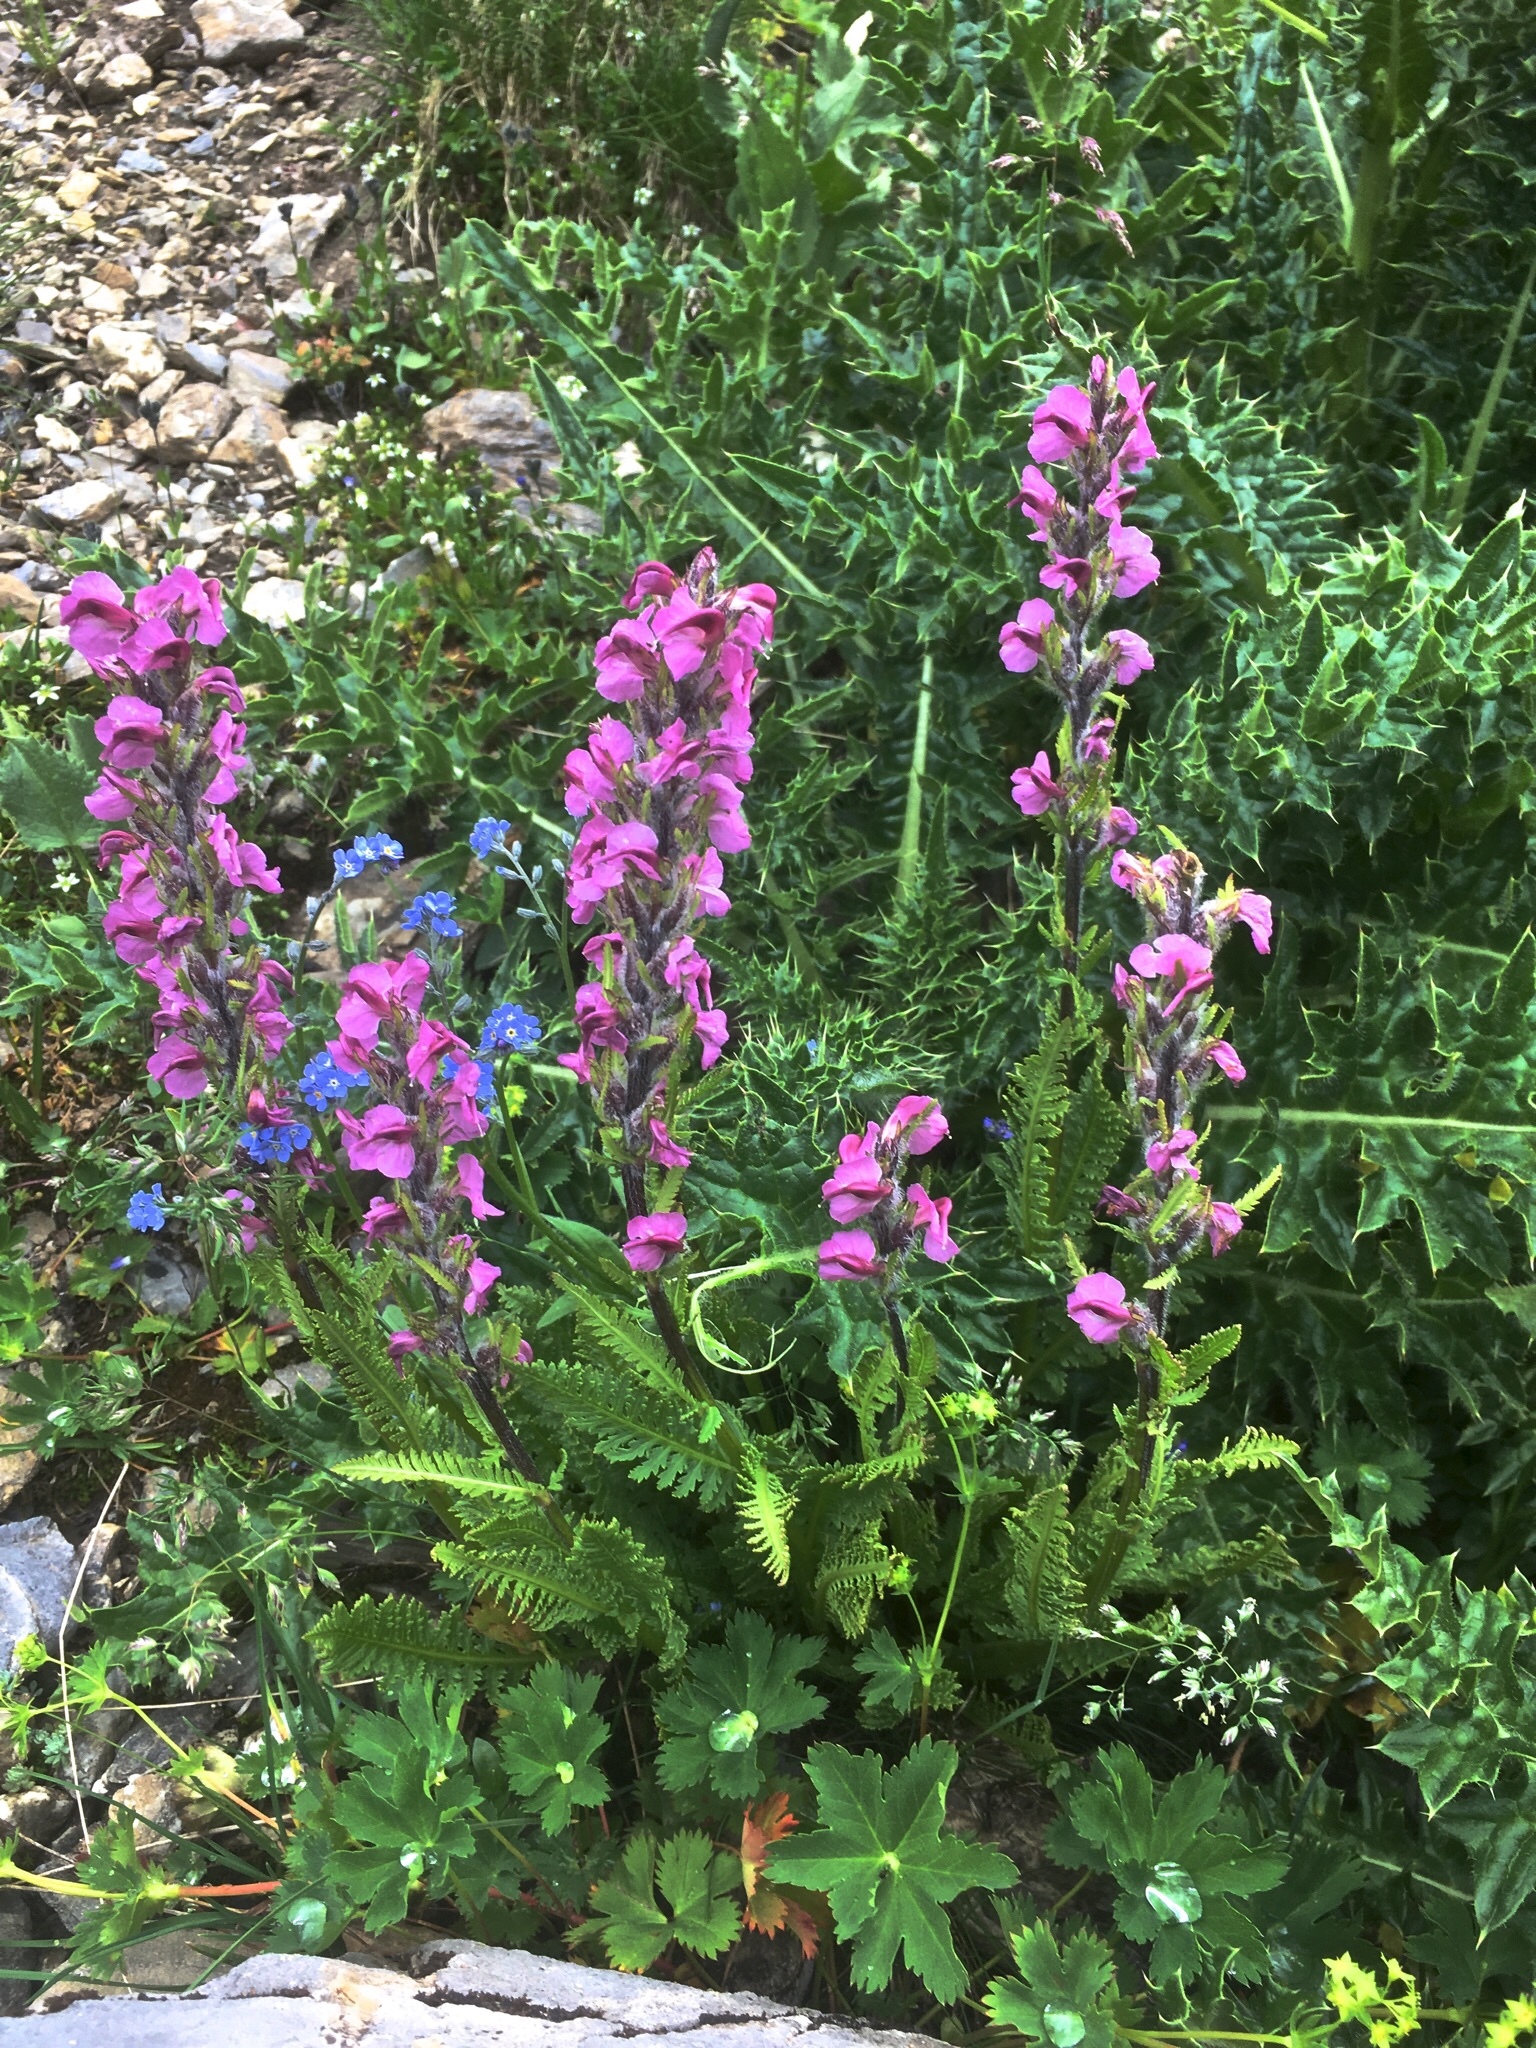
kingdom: Plantae
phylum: Tracheophyta
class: Magnoliopsida
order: Lamiales
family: Orobanchaceae
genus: Pedicularis
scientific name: Pedicularis rostratospicata
